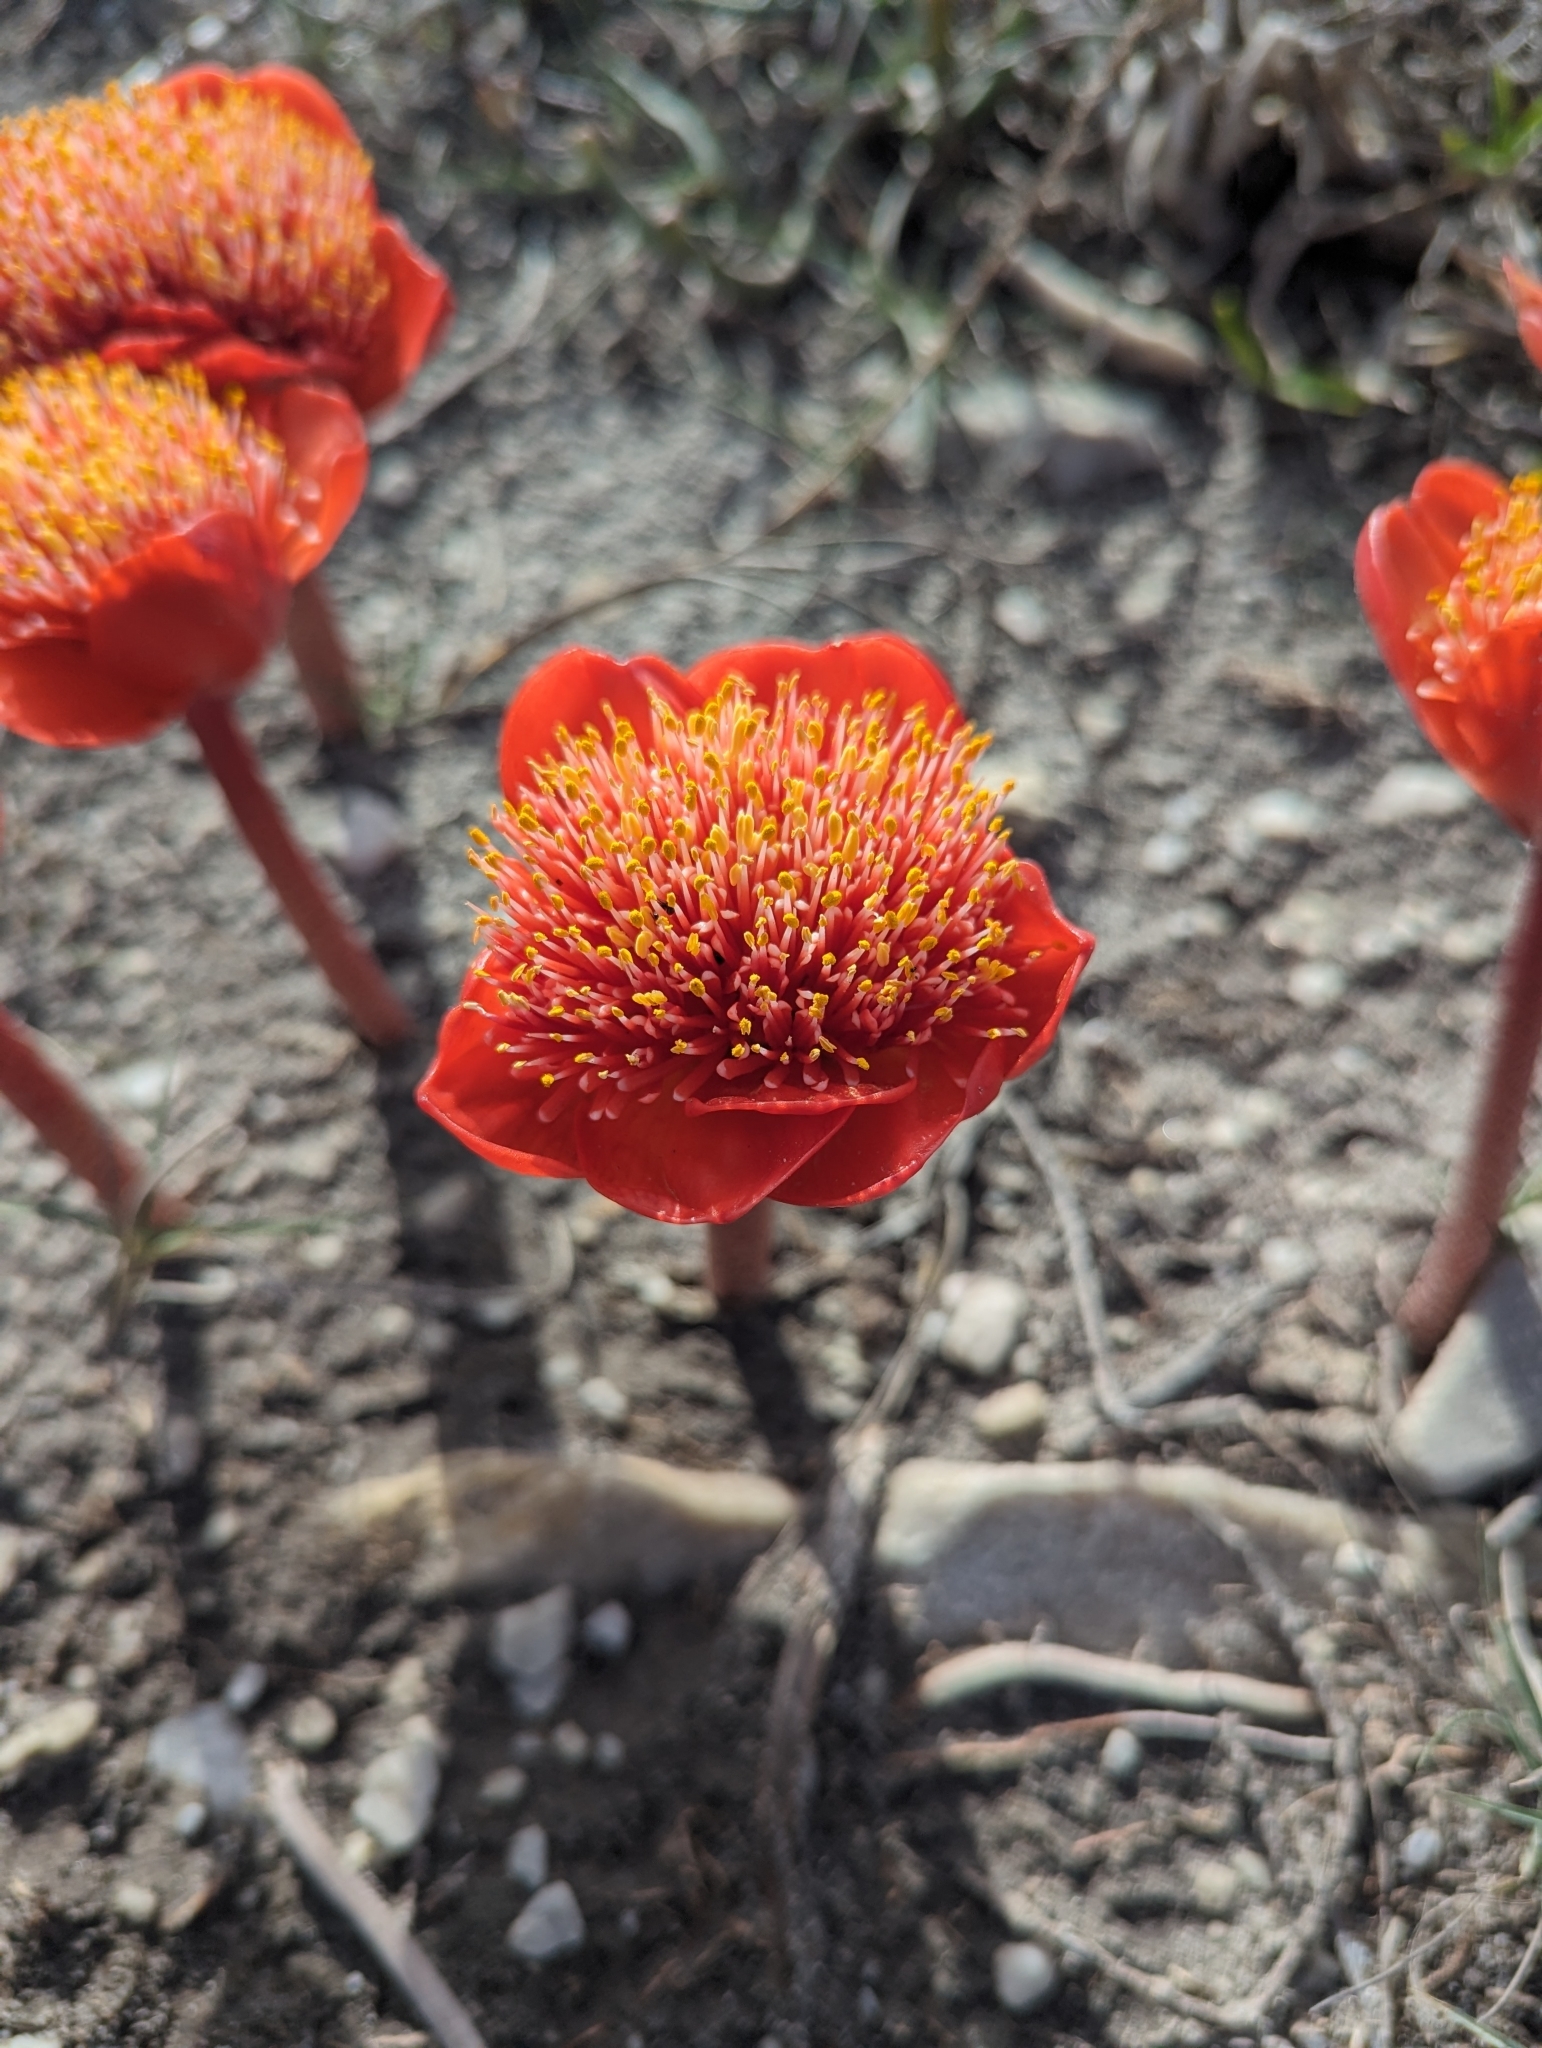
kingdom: Plantae
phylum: Tracheophyta
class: Liliopsida
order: Asparagales
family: Amaryllidaceae
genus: Haemanthus
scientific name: Haemanthus coccineus
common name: Cape-tulip
